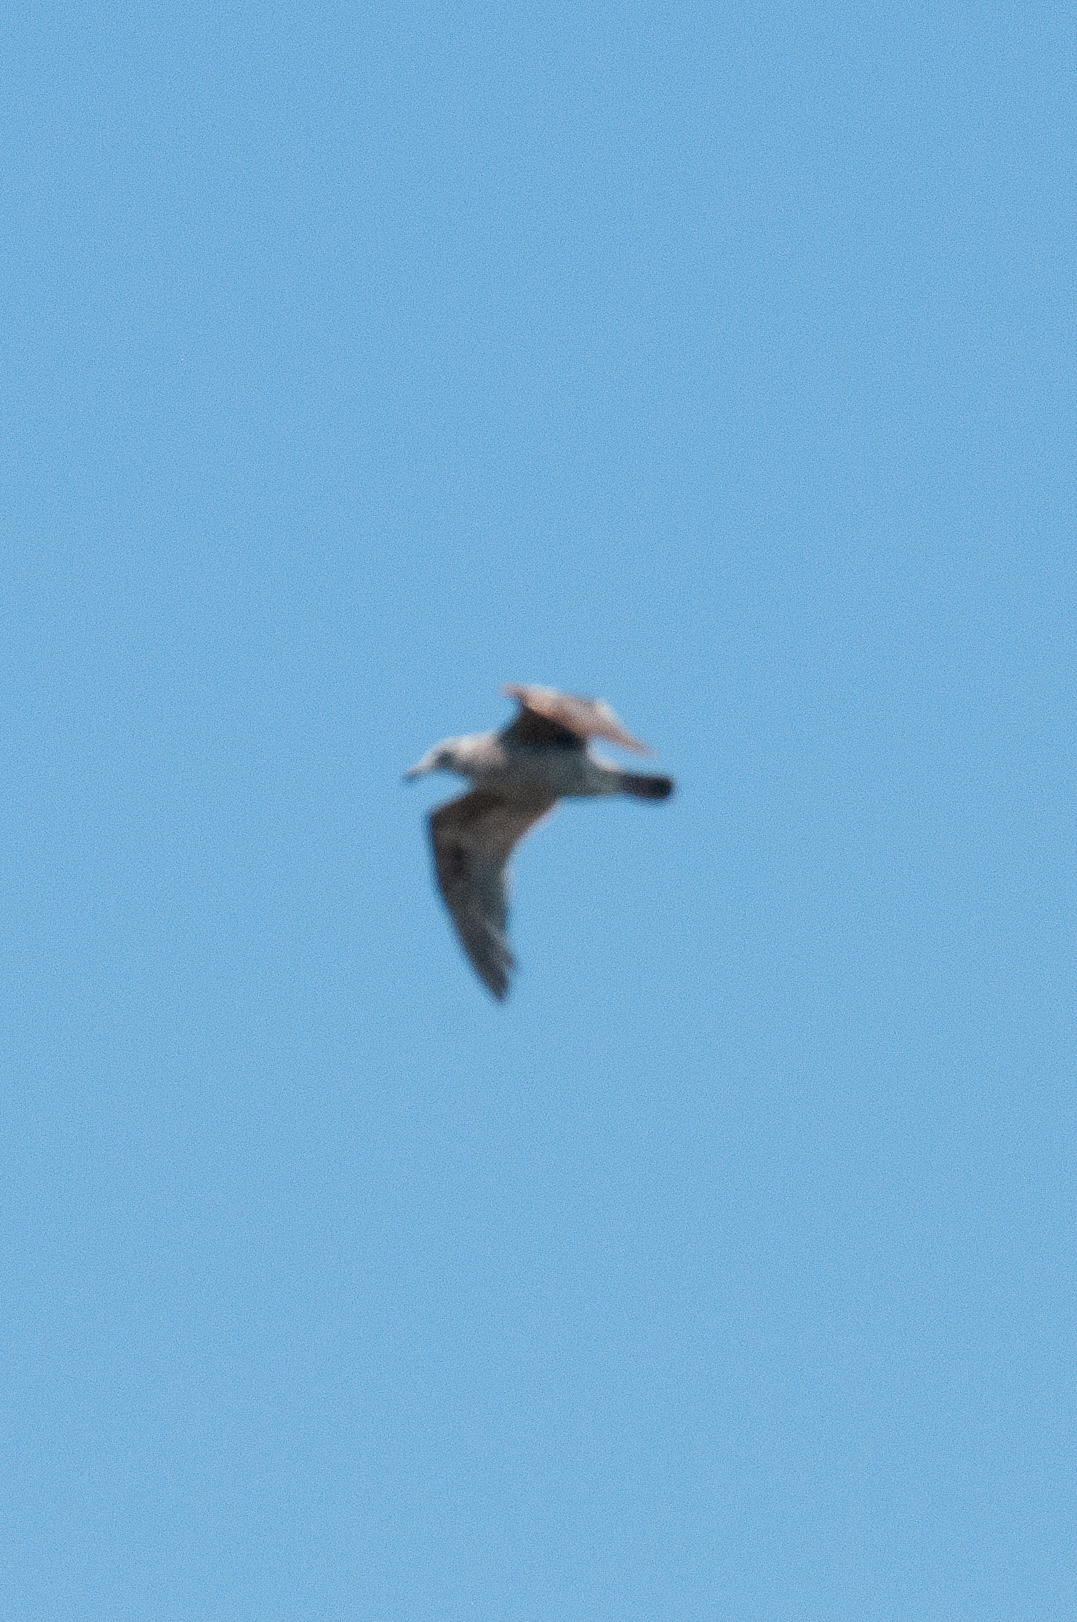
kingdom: Animalia
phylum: Chordata
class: Aves
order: Charadriiformes
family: Laridae
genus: Larus
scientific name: Larus
